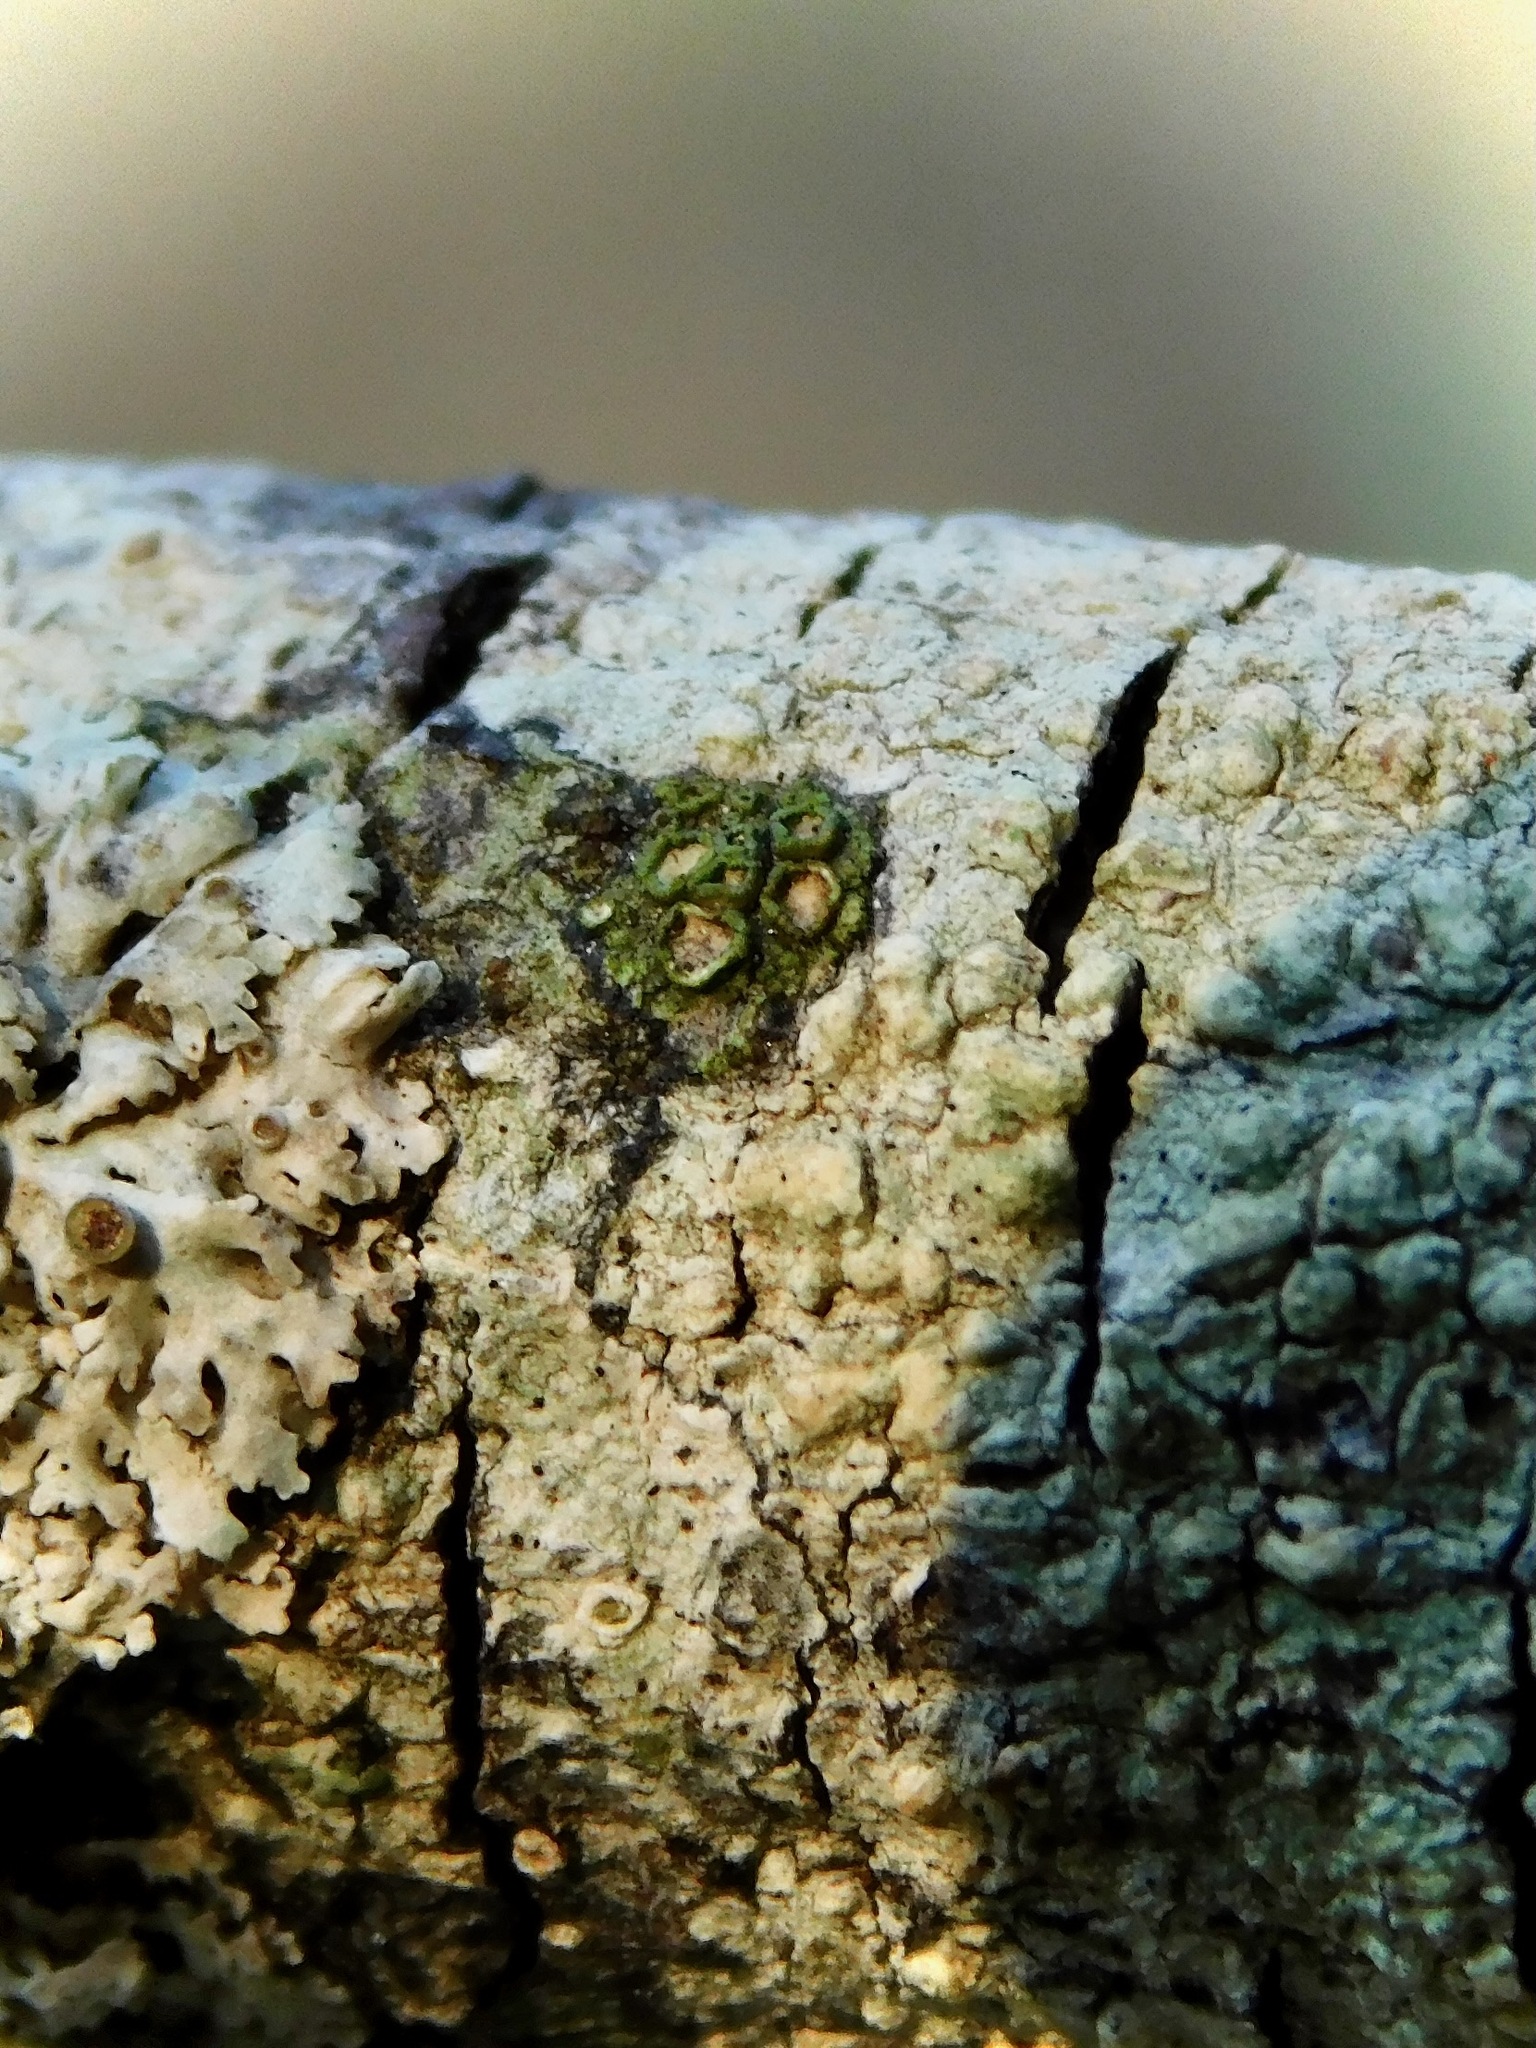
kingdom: Fungi
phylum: Ascomycota
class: Lecanoromycetes
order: Umbilicariales
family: Fuscideaceae
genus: Maronea
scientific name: Maronea polyphaea
